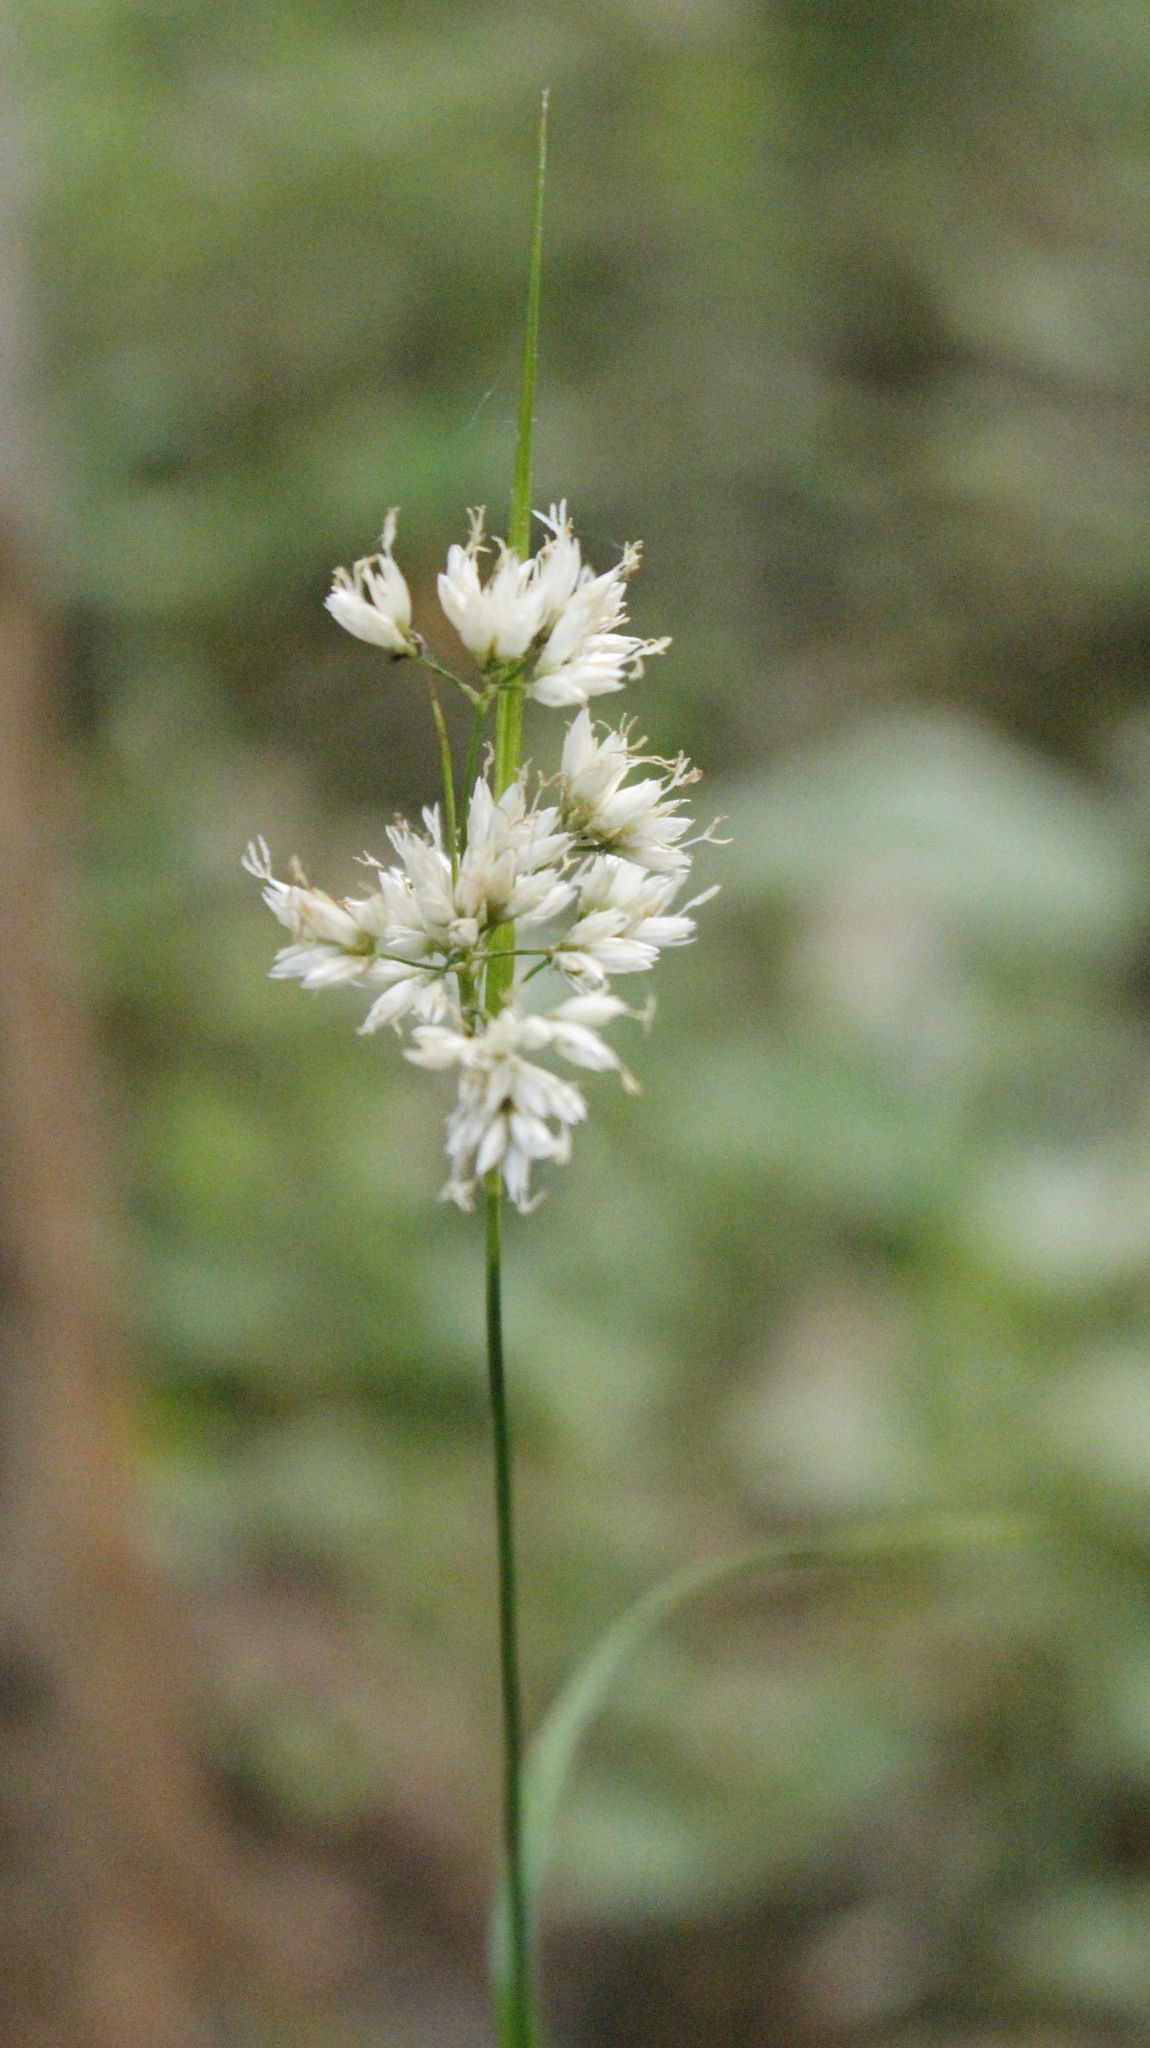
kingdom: Plantae
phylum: Tracheophyta
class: Liliopsida
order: Poales
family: Juncaceae
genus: Luzula
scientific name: Luzula nivea
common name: Snow-white wood-rush
